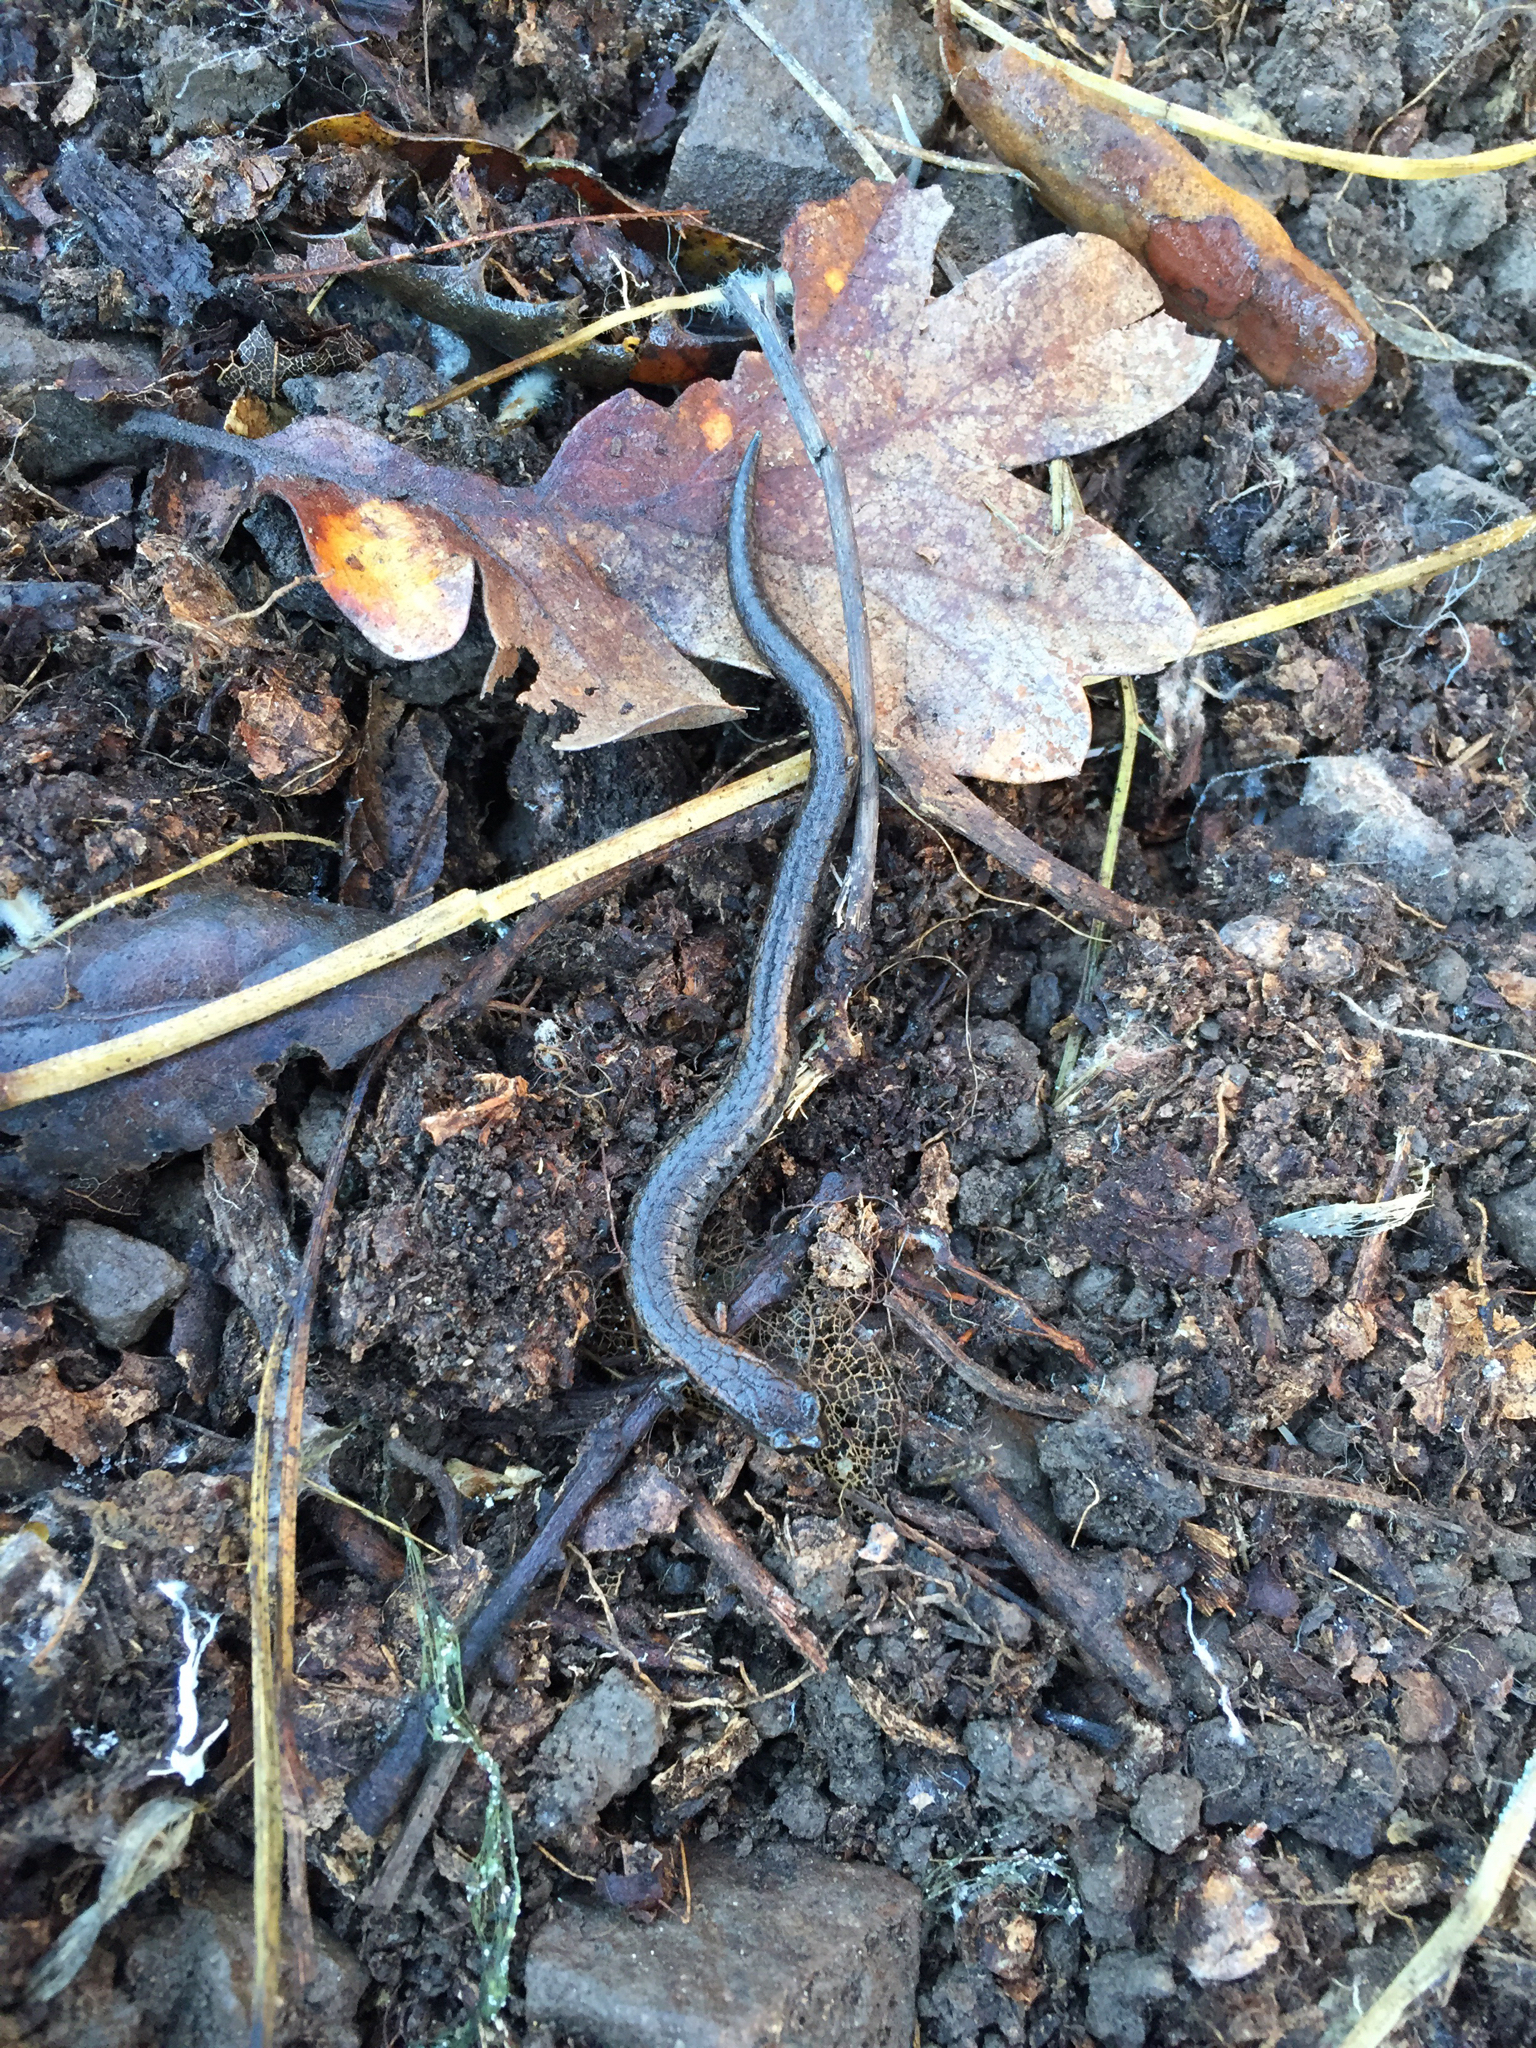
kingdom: Animalia
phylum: Chordata
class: Amphibia
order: Caudata
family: Plethodontidae
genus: Batrachoseps
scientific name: Batrachoseps attenuatus
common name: California slender salamander
